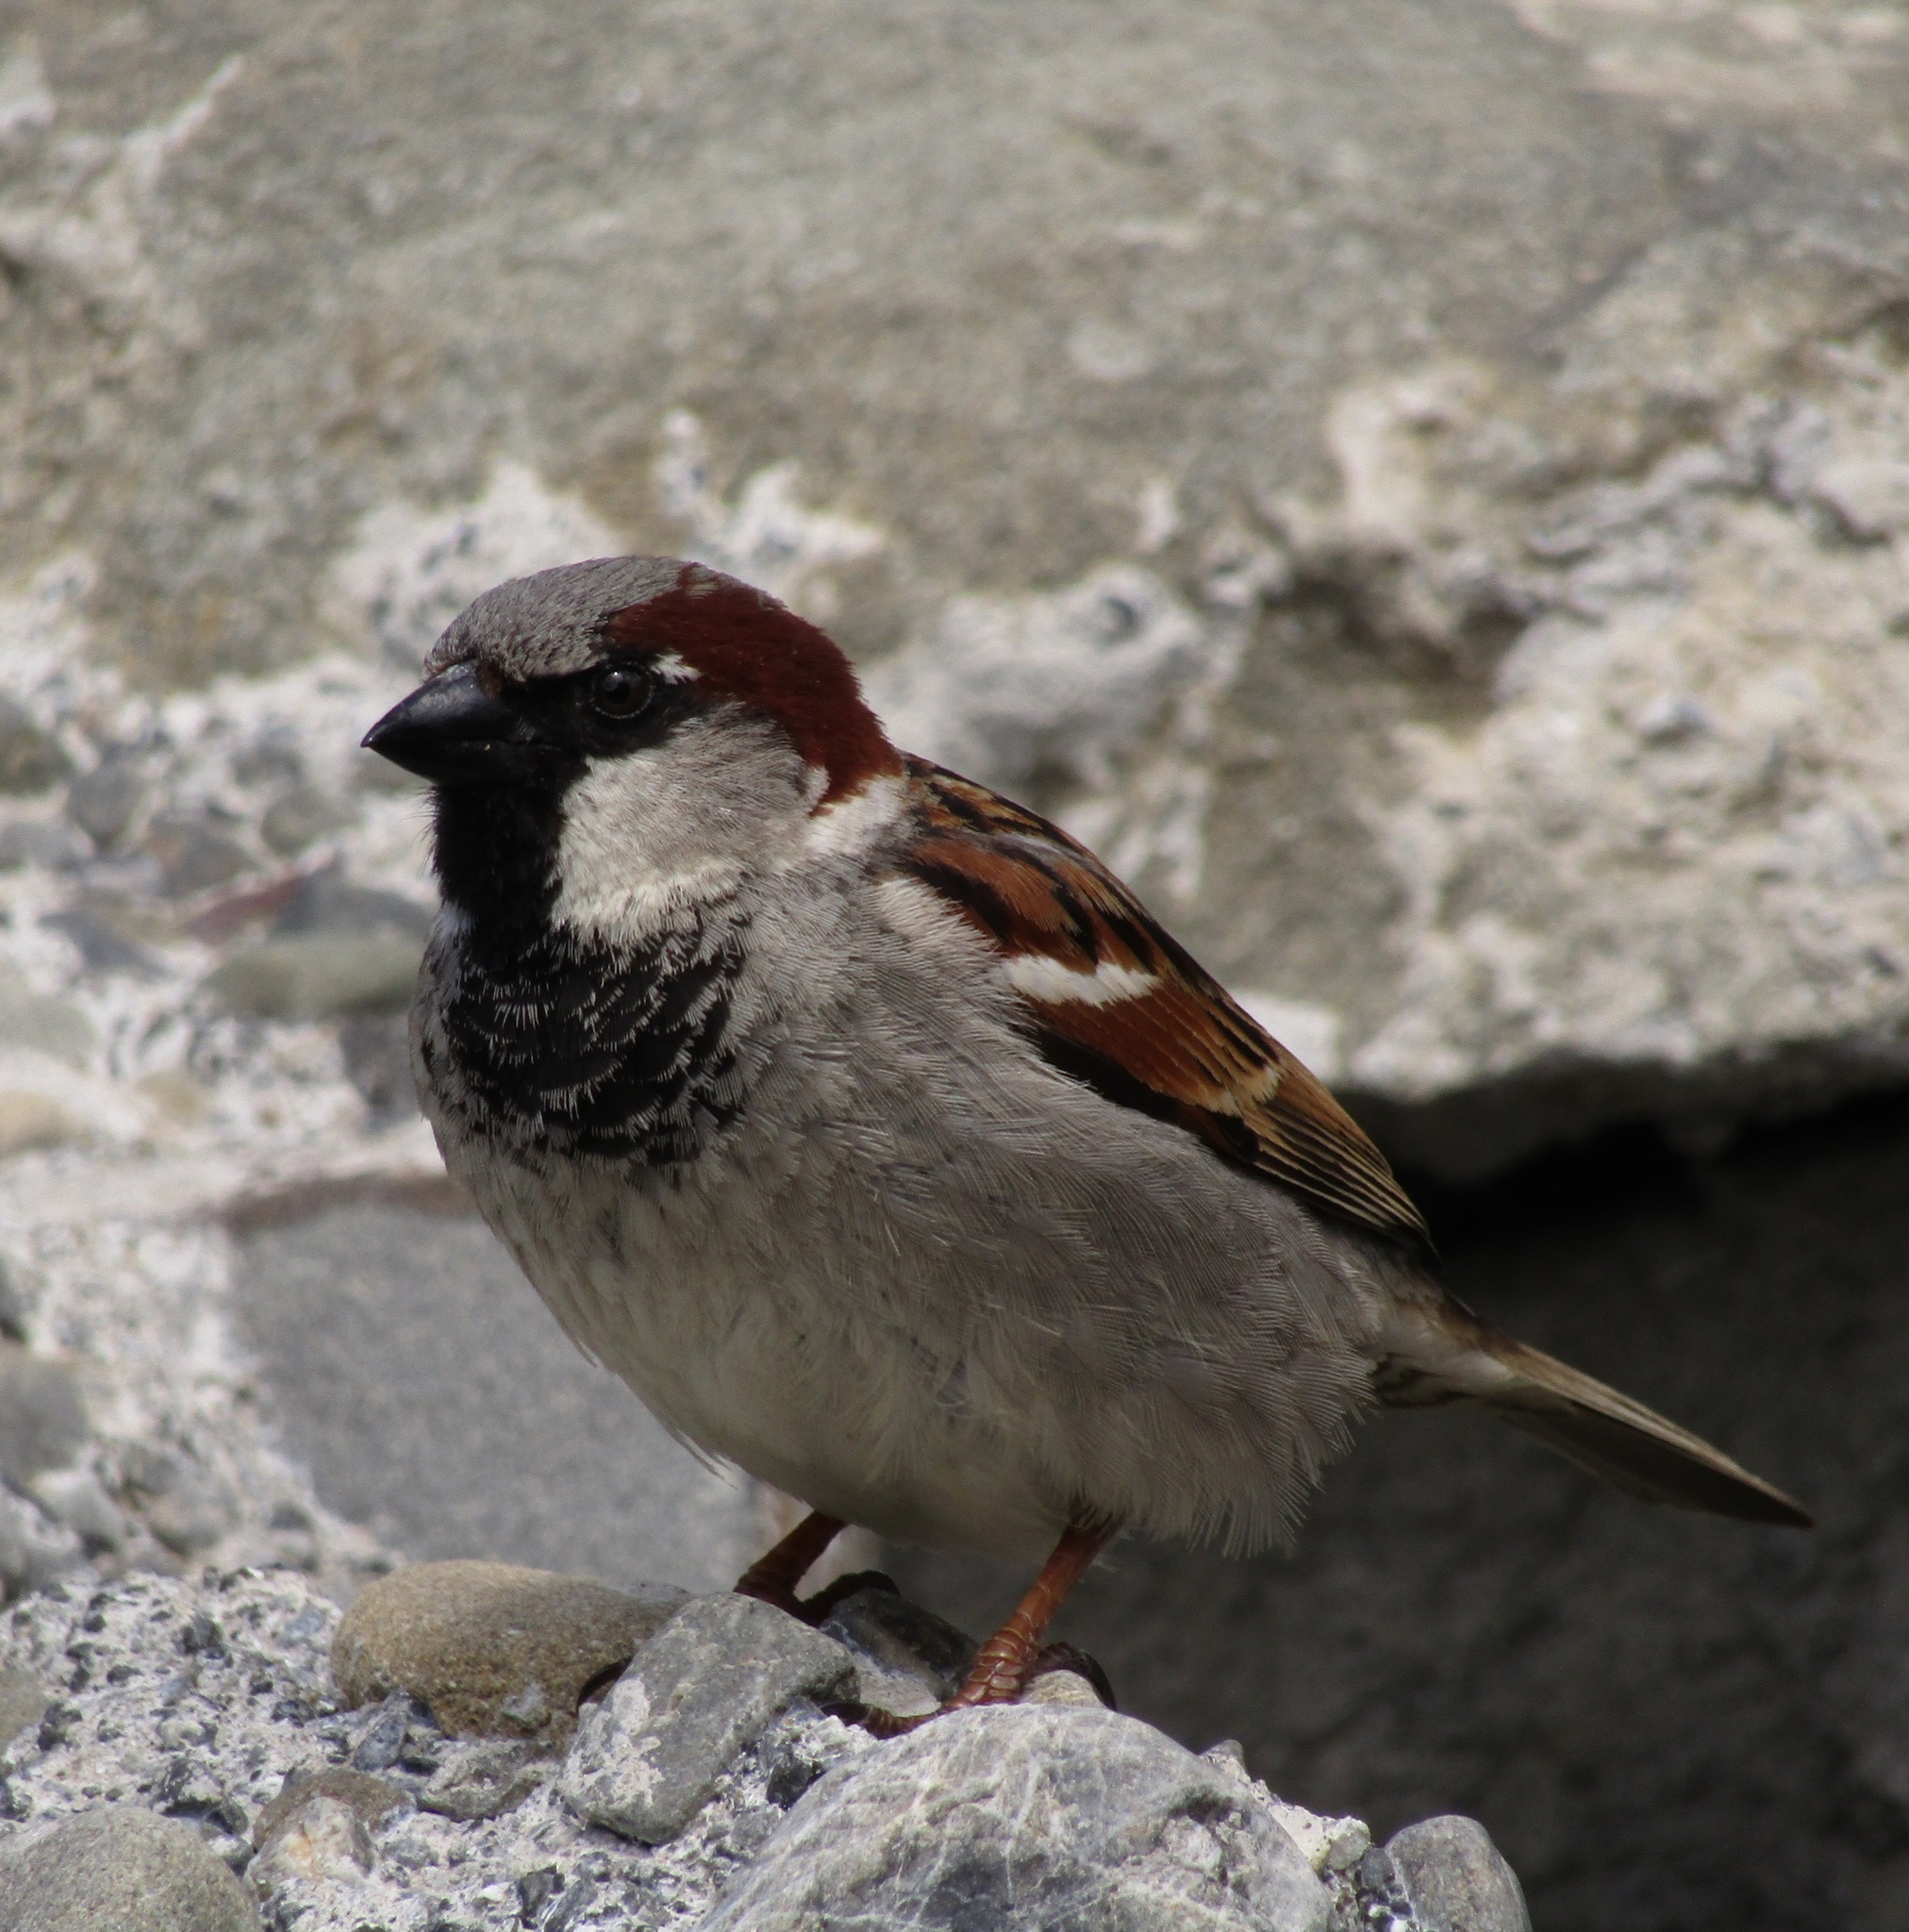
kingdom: Animalia
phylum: Chordata
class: Aves
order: Passeriformes
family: Passeridae
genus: Passer
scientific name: Passer domesticus
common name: House sparrow
